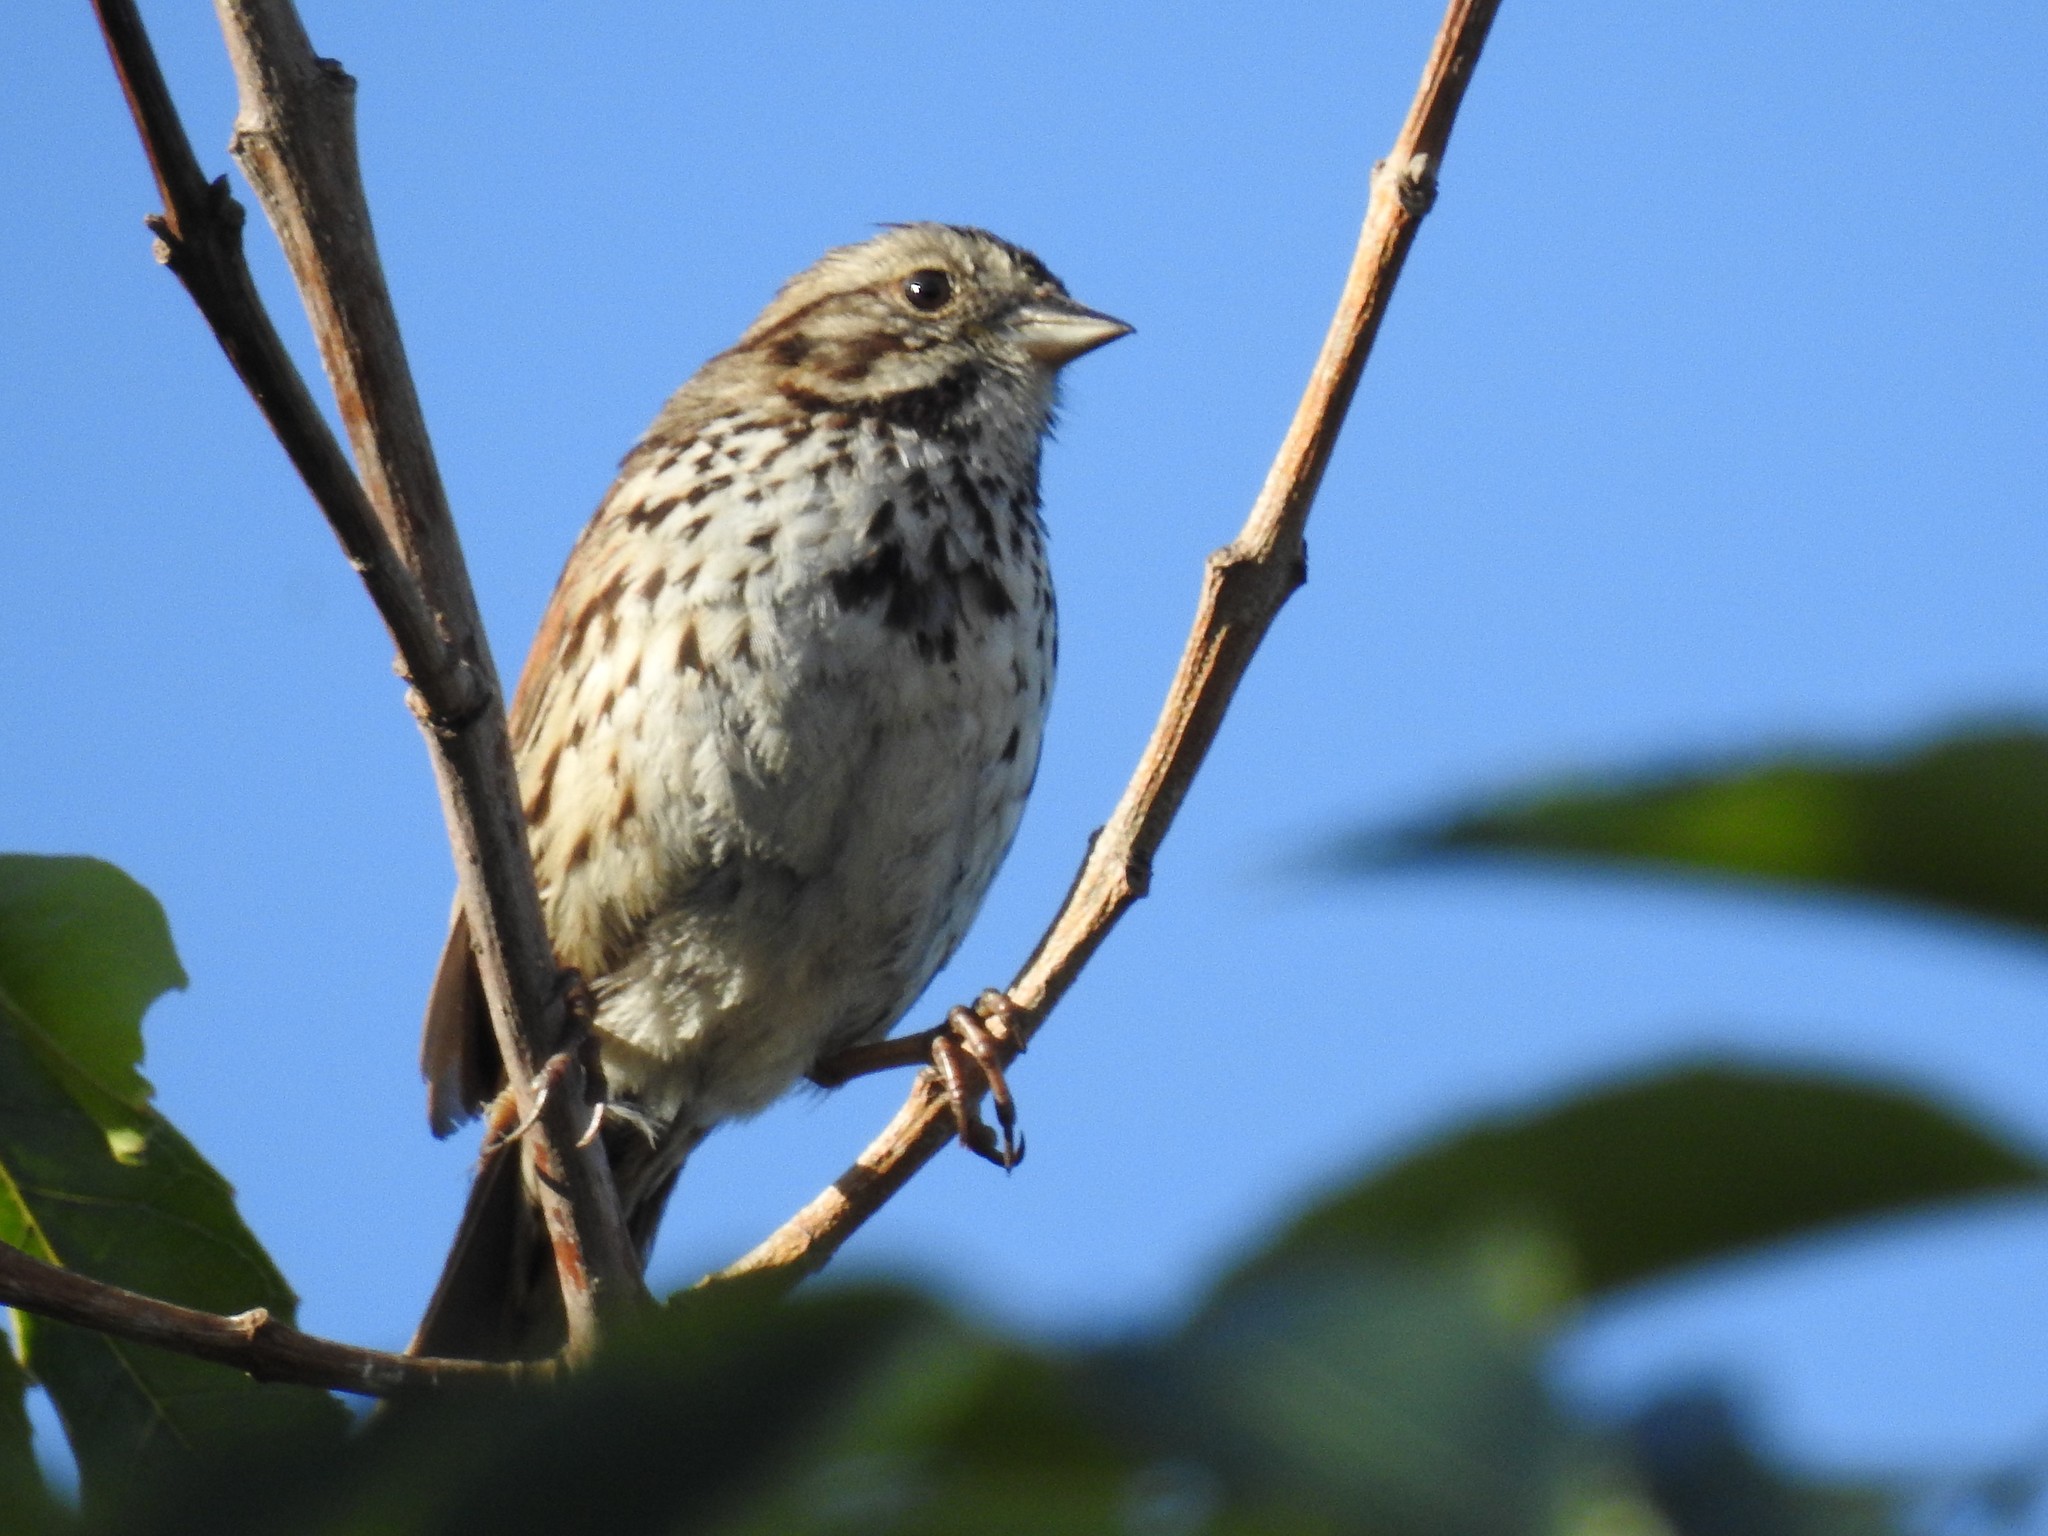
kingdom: Animalia
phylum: Chordata
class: Aves
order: Passeriformes
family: Passerellidae
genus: Melospiza
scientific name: Melospiza melodia
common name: Song sparrow
